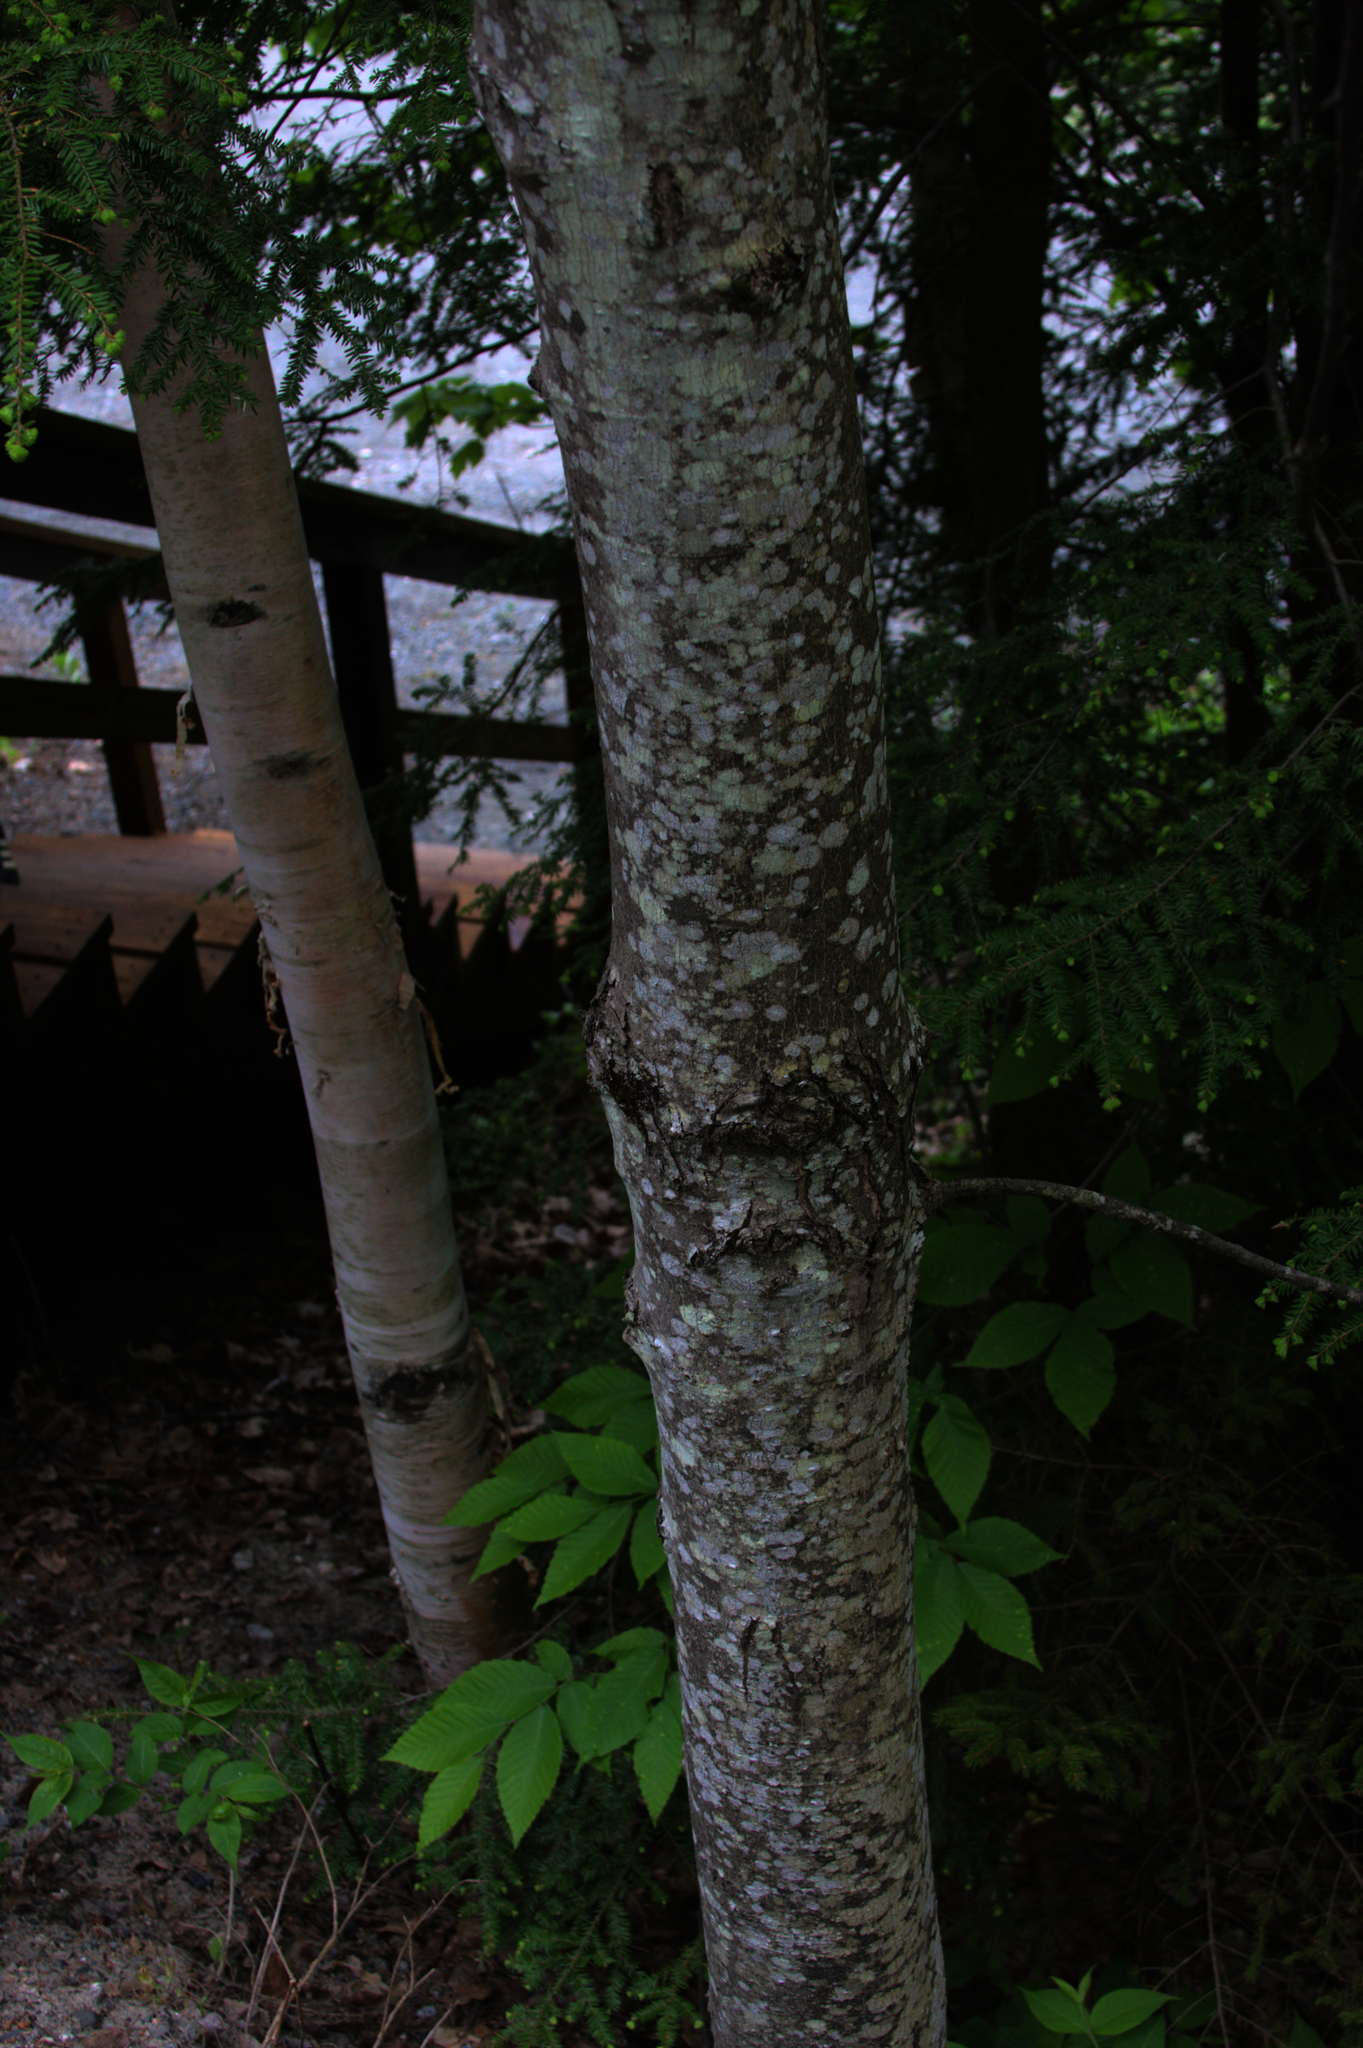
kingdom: Plantae
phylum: Tracheophyta
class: Magnoliopsida
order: Sapindales
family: Sapindaceae
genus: Acer
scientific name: Acer rubrum
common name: Red maple
